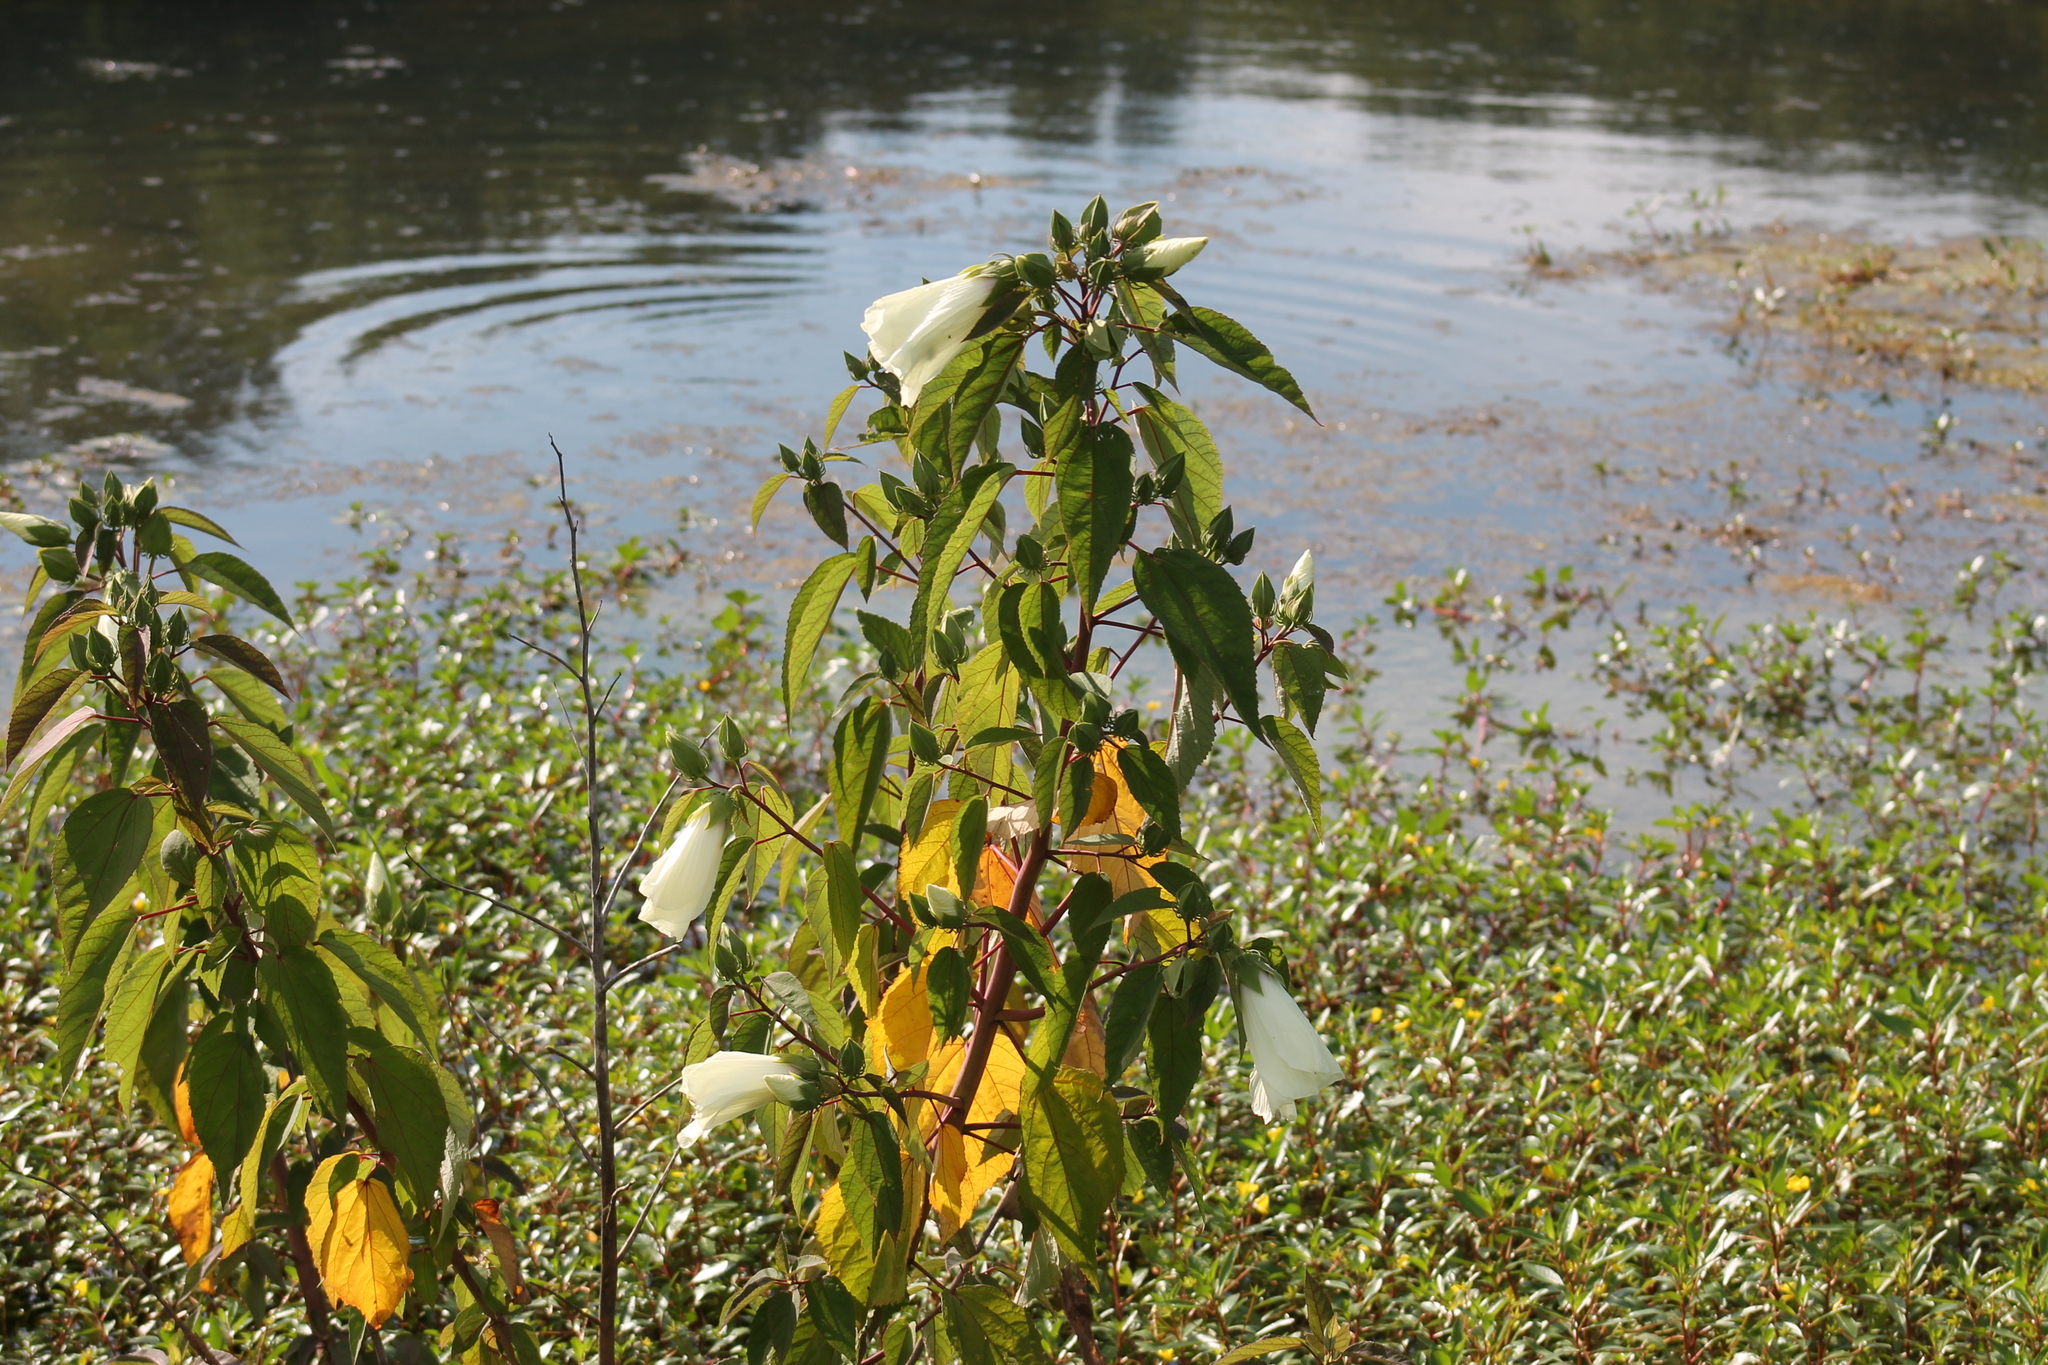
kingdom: Plantae
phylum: Tracheophyta
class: Magnoliopsida
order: Malvales
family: Malvaceae
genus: Hibiscus
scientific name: Hibiscus moscheutos
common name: Common rose-mallow
